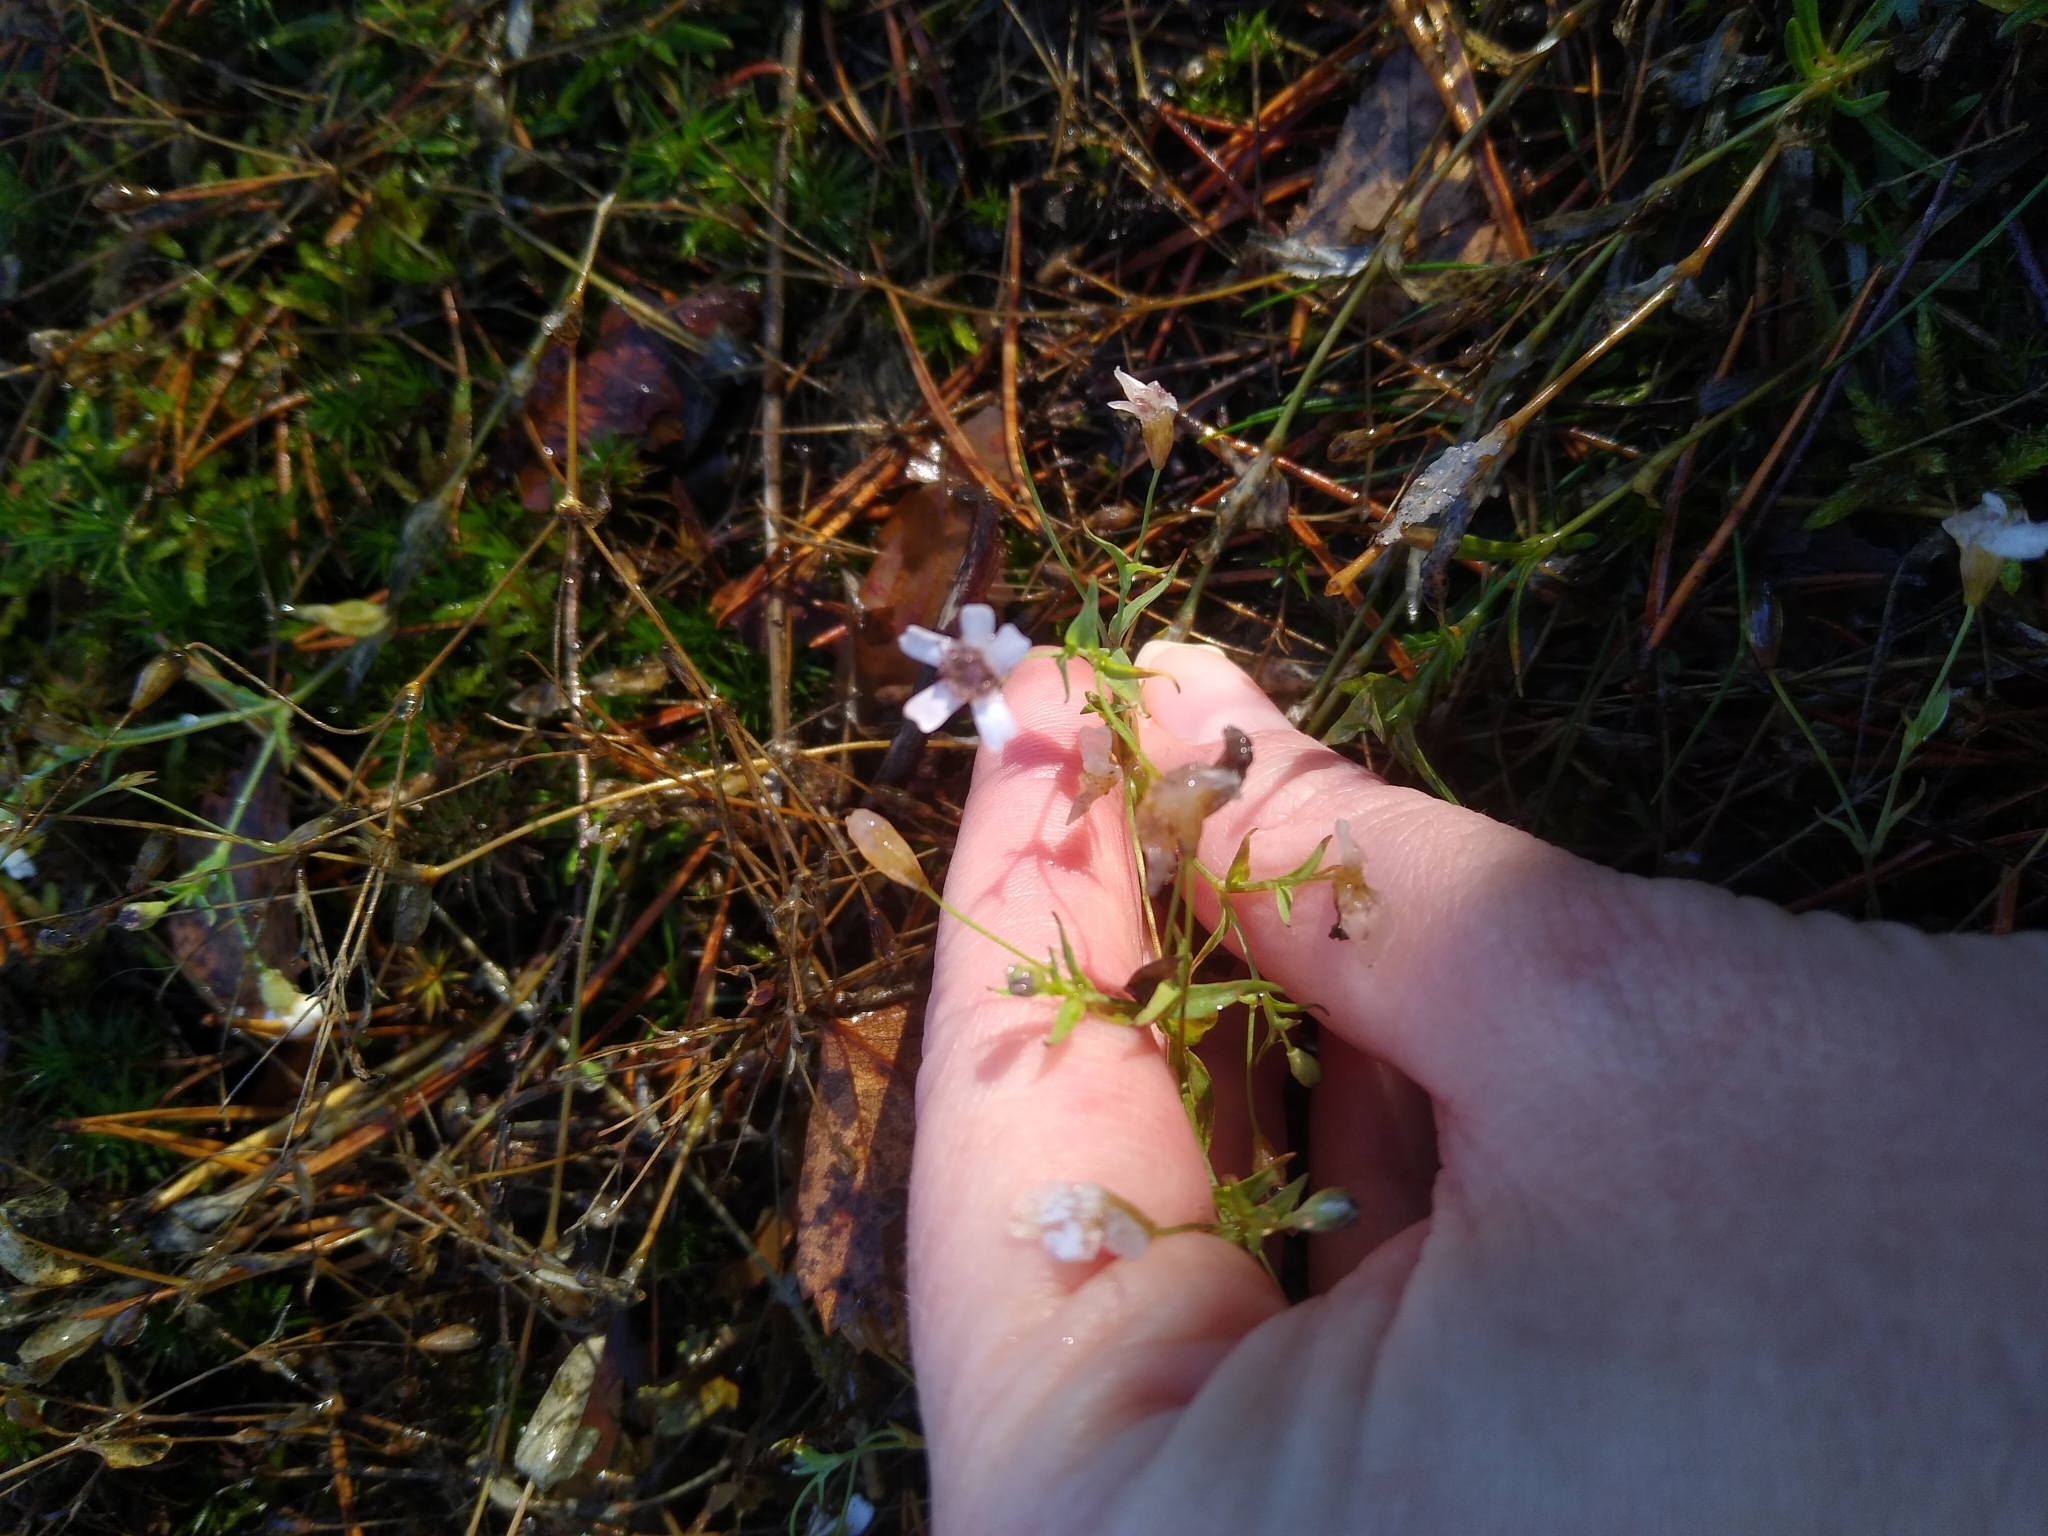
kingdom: Plantae
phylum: Tracheophyta
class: Magnoliopsida
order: Caryophyllales
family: Caryophyllaceae
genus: Atocion
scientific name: Atocion rupestre
